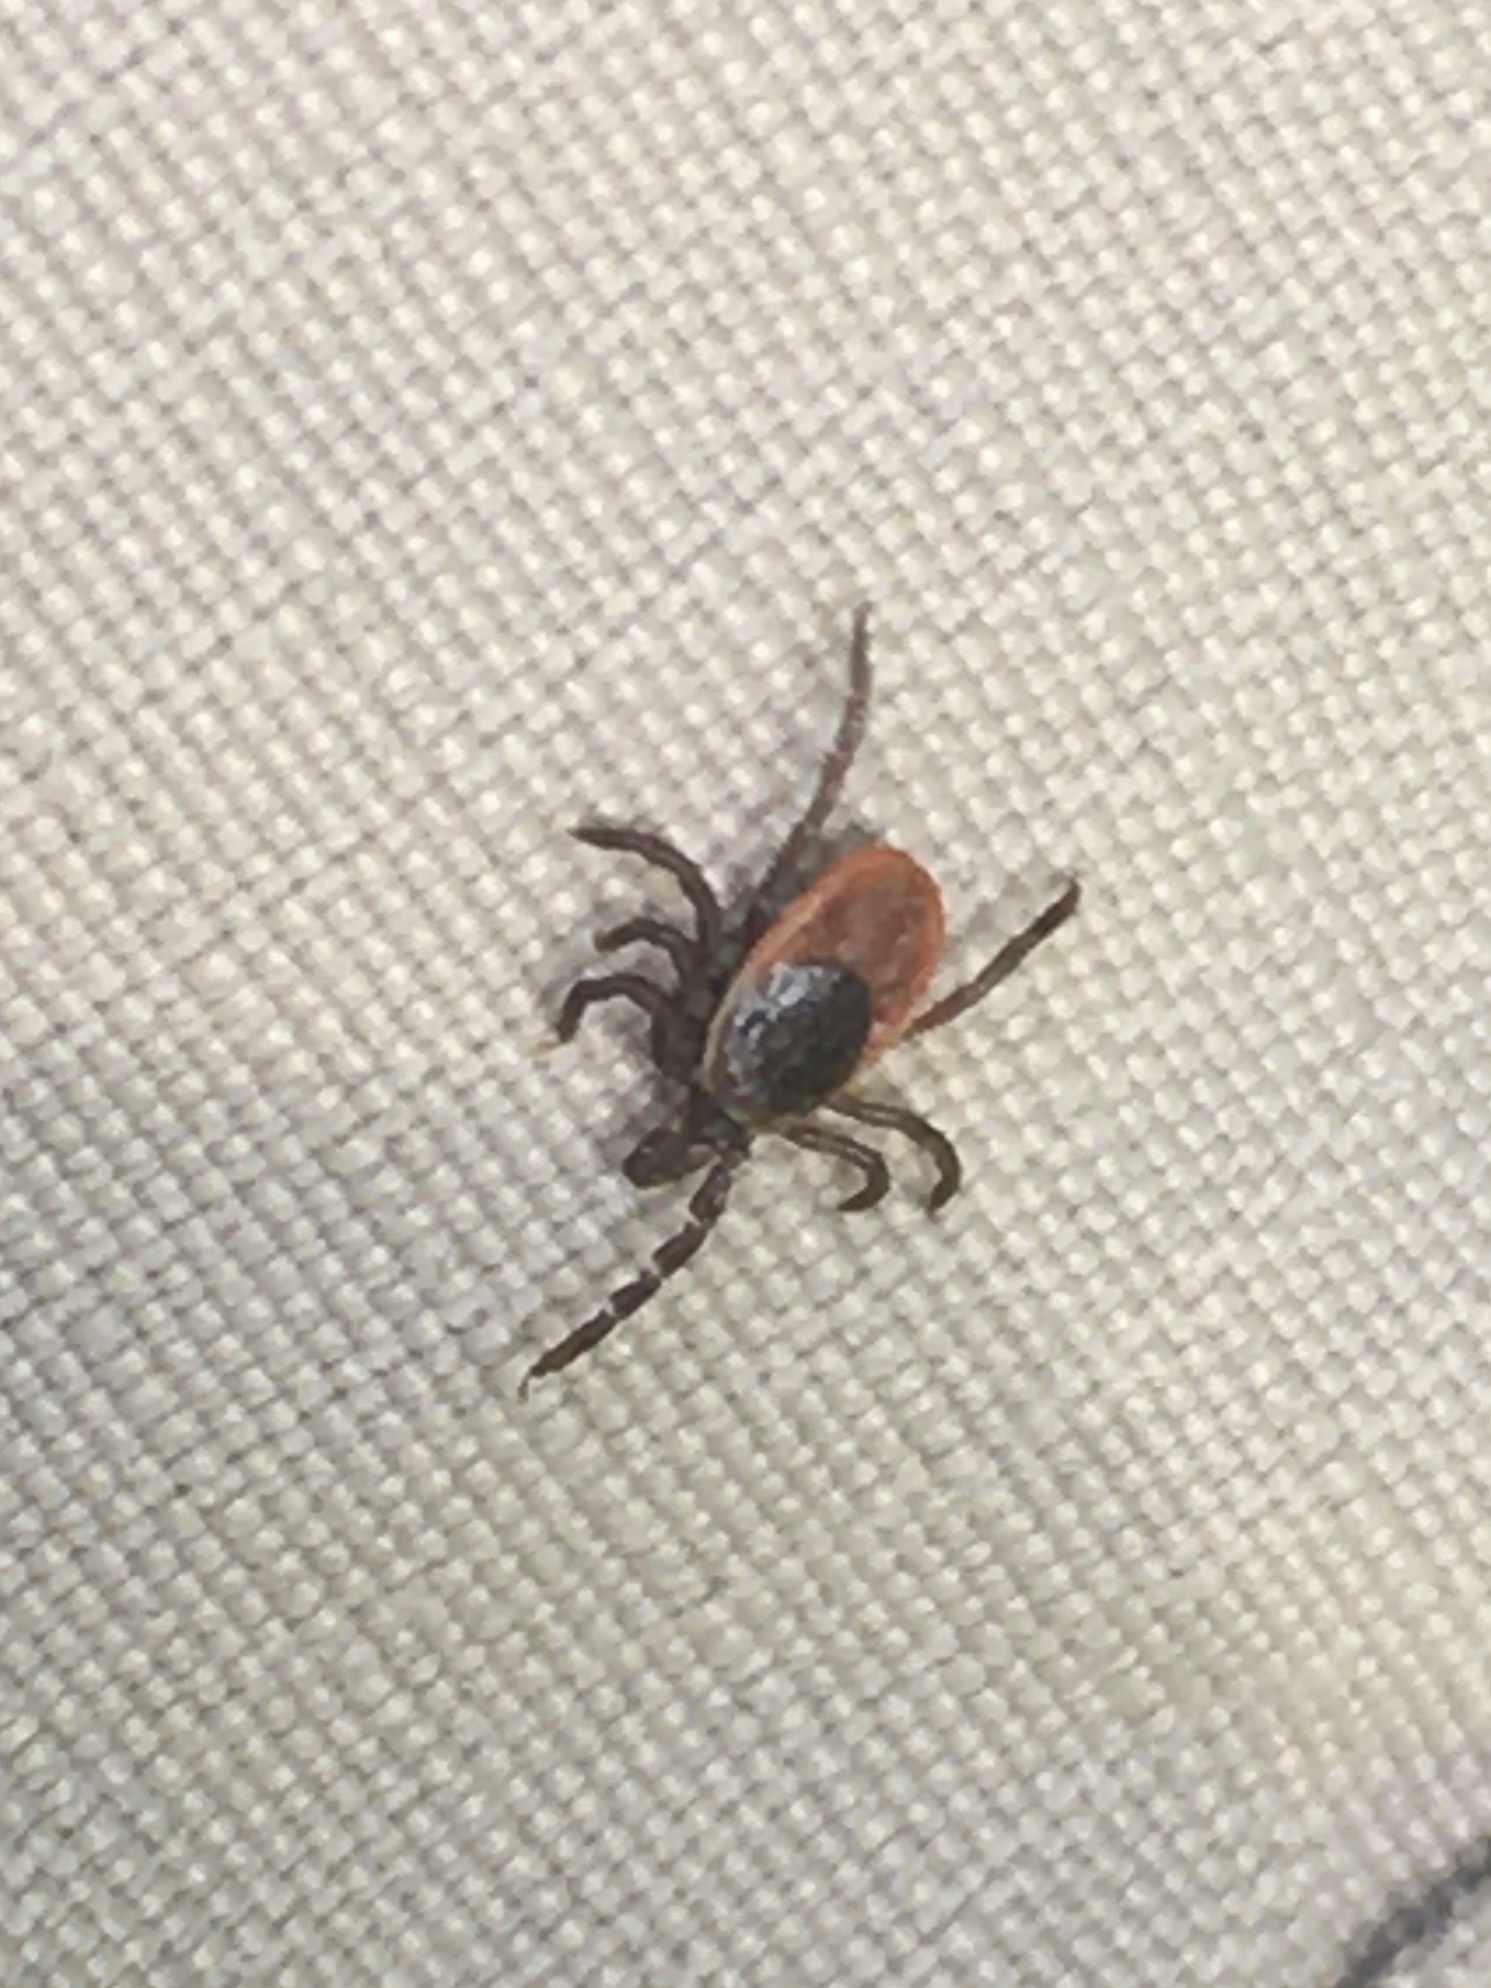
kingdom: Animalia
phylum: Arthropoda
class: Arachnida
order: Ixodida
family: Ixodidae
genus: Ixodes
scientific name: Ixodes scapularis
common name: Black legged tick
